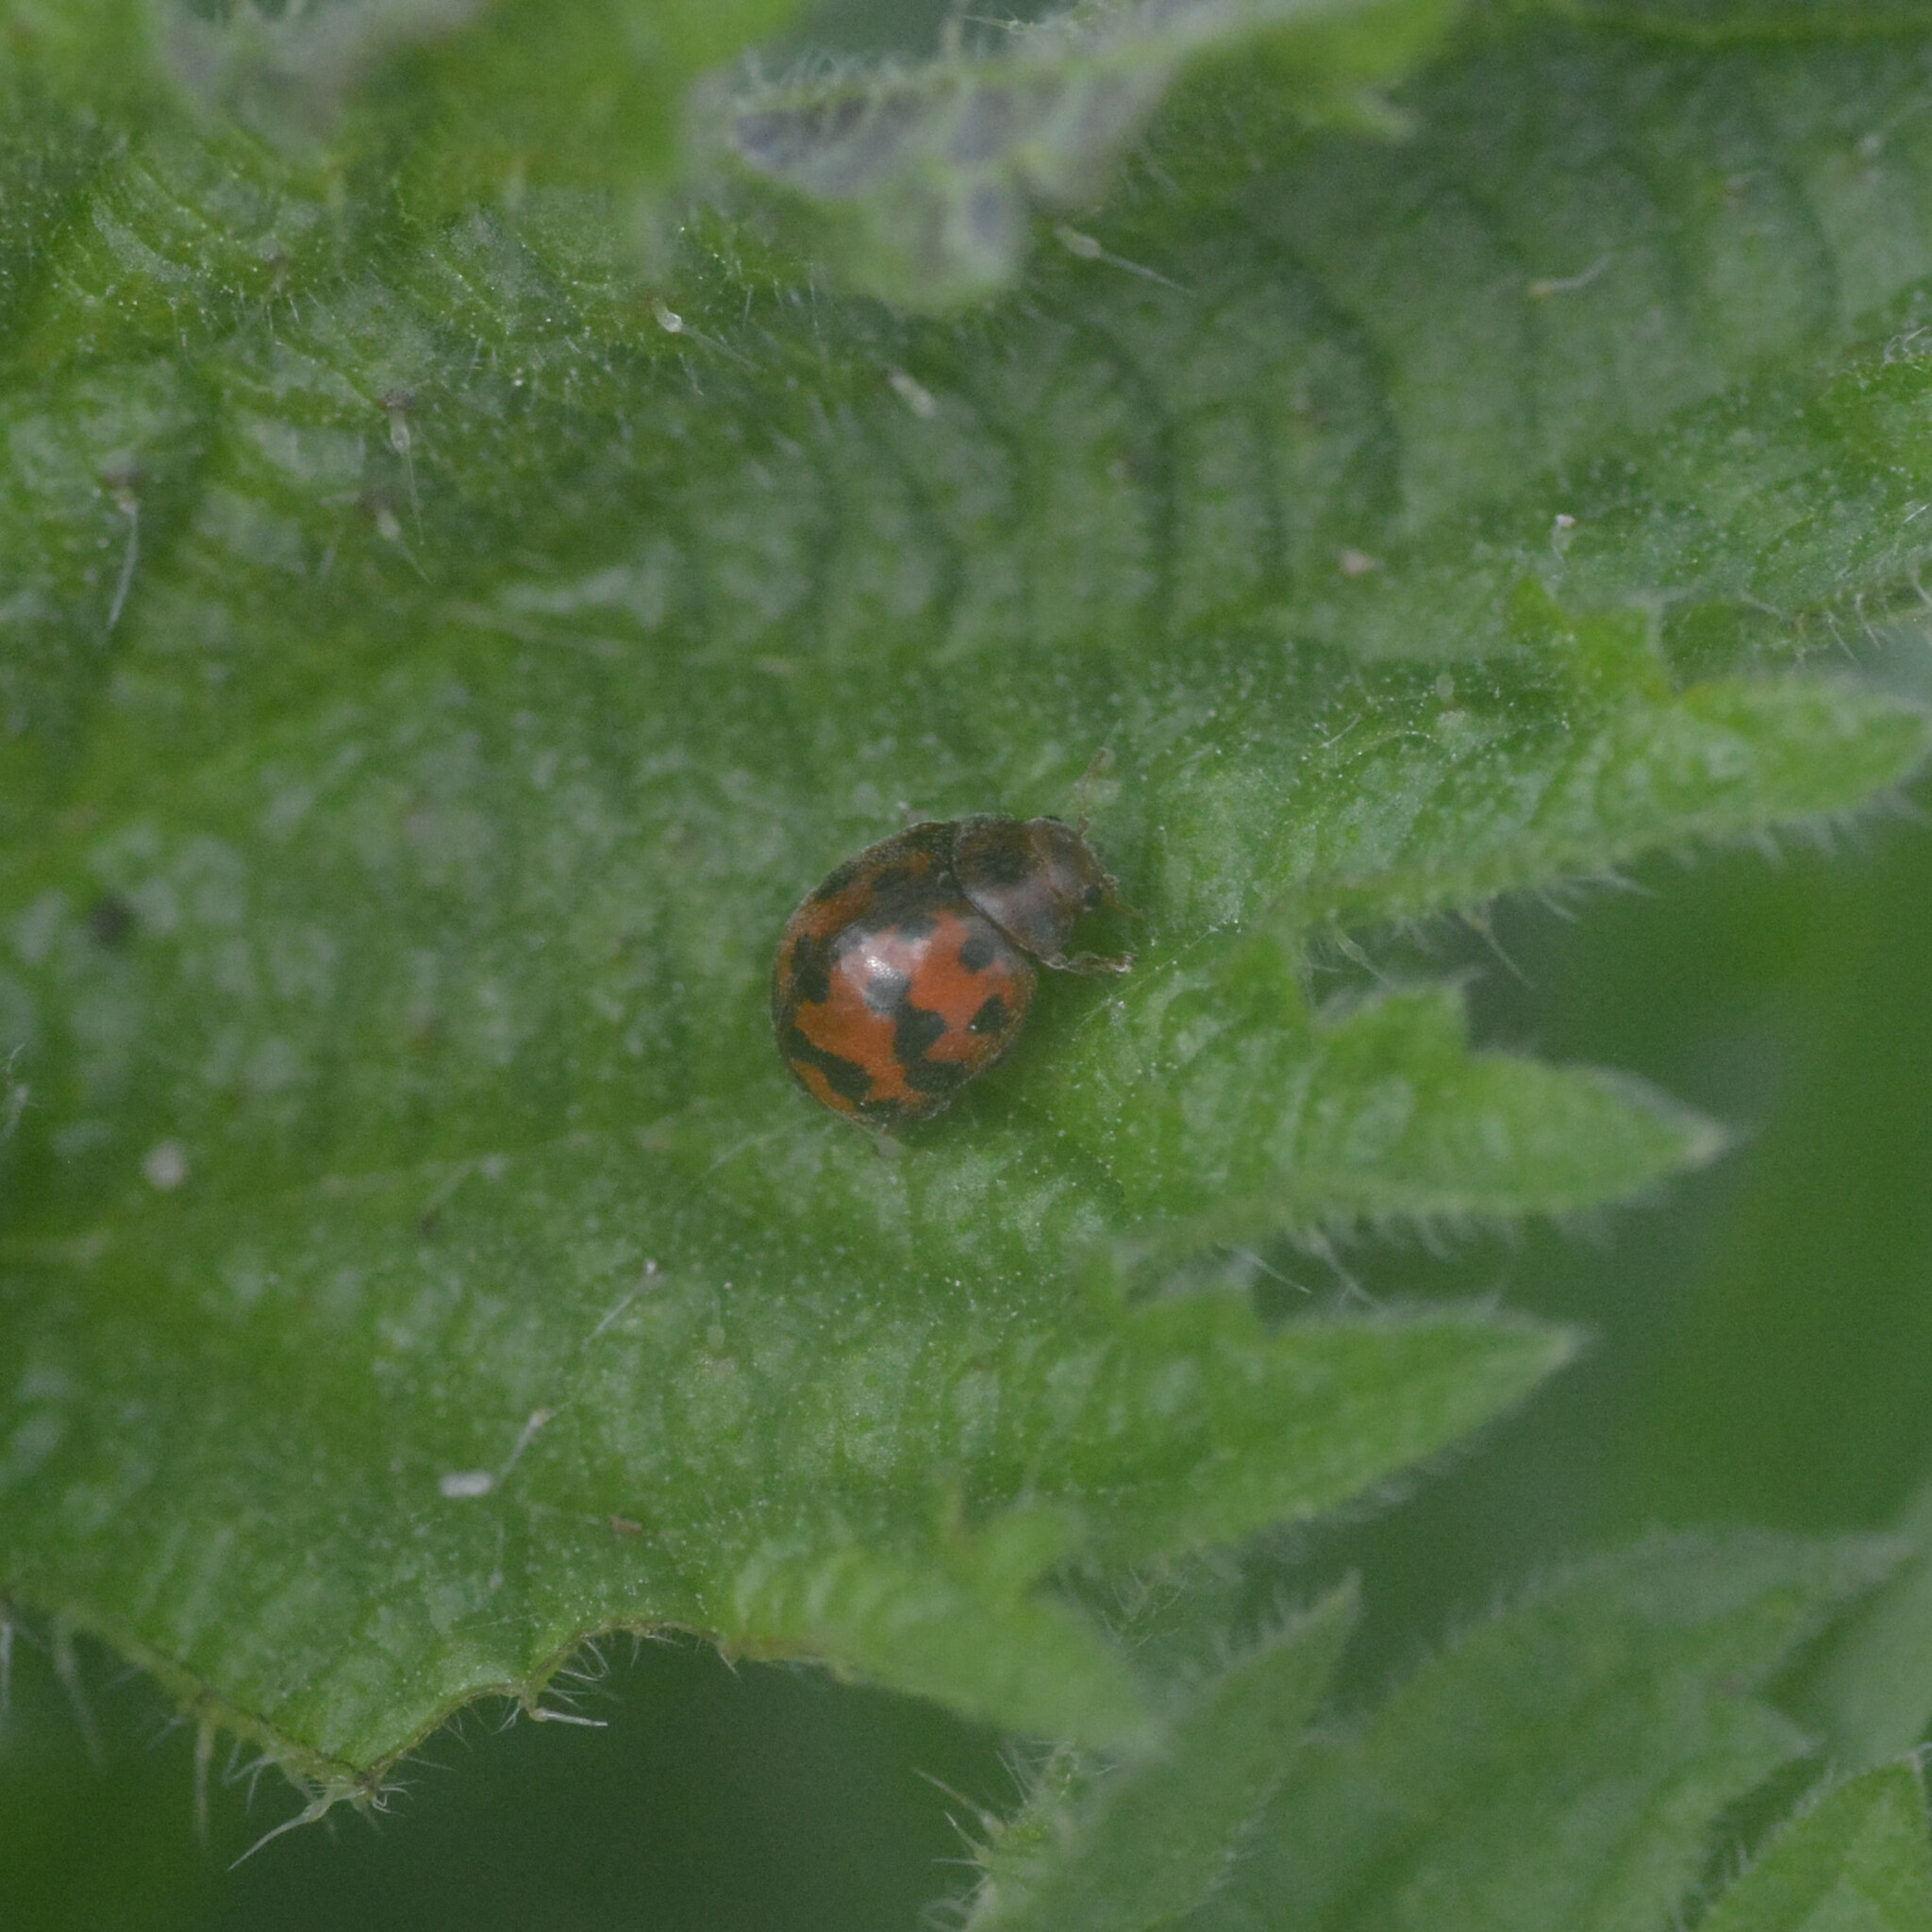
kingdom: Animalia
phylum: Arthropoda
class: Insecta
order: Coleoptera
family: Coccinellidae
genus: Subcoccinella
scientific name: Subcoccinella vigintiquatuorpunctata
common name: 24-spot ladybird
